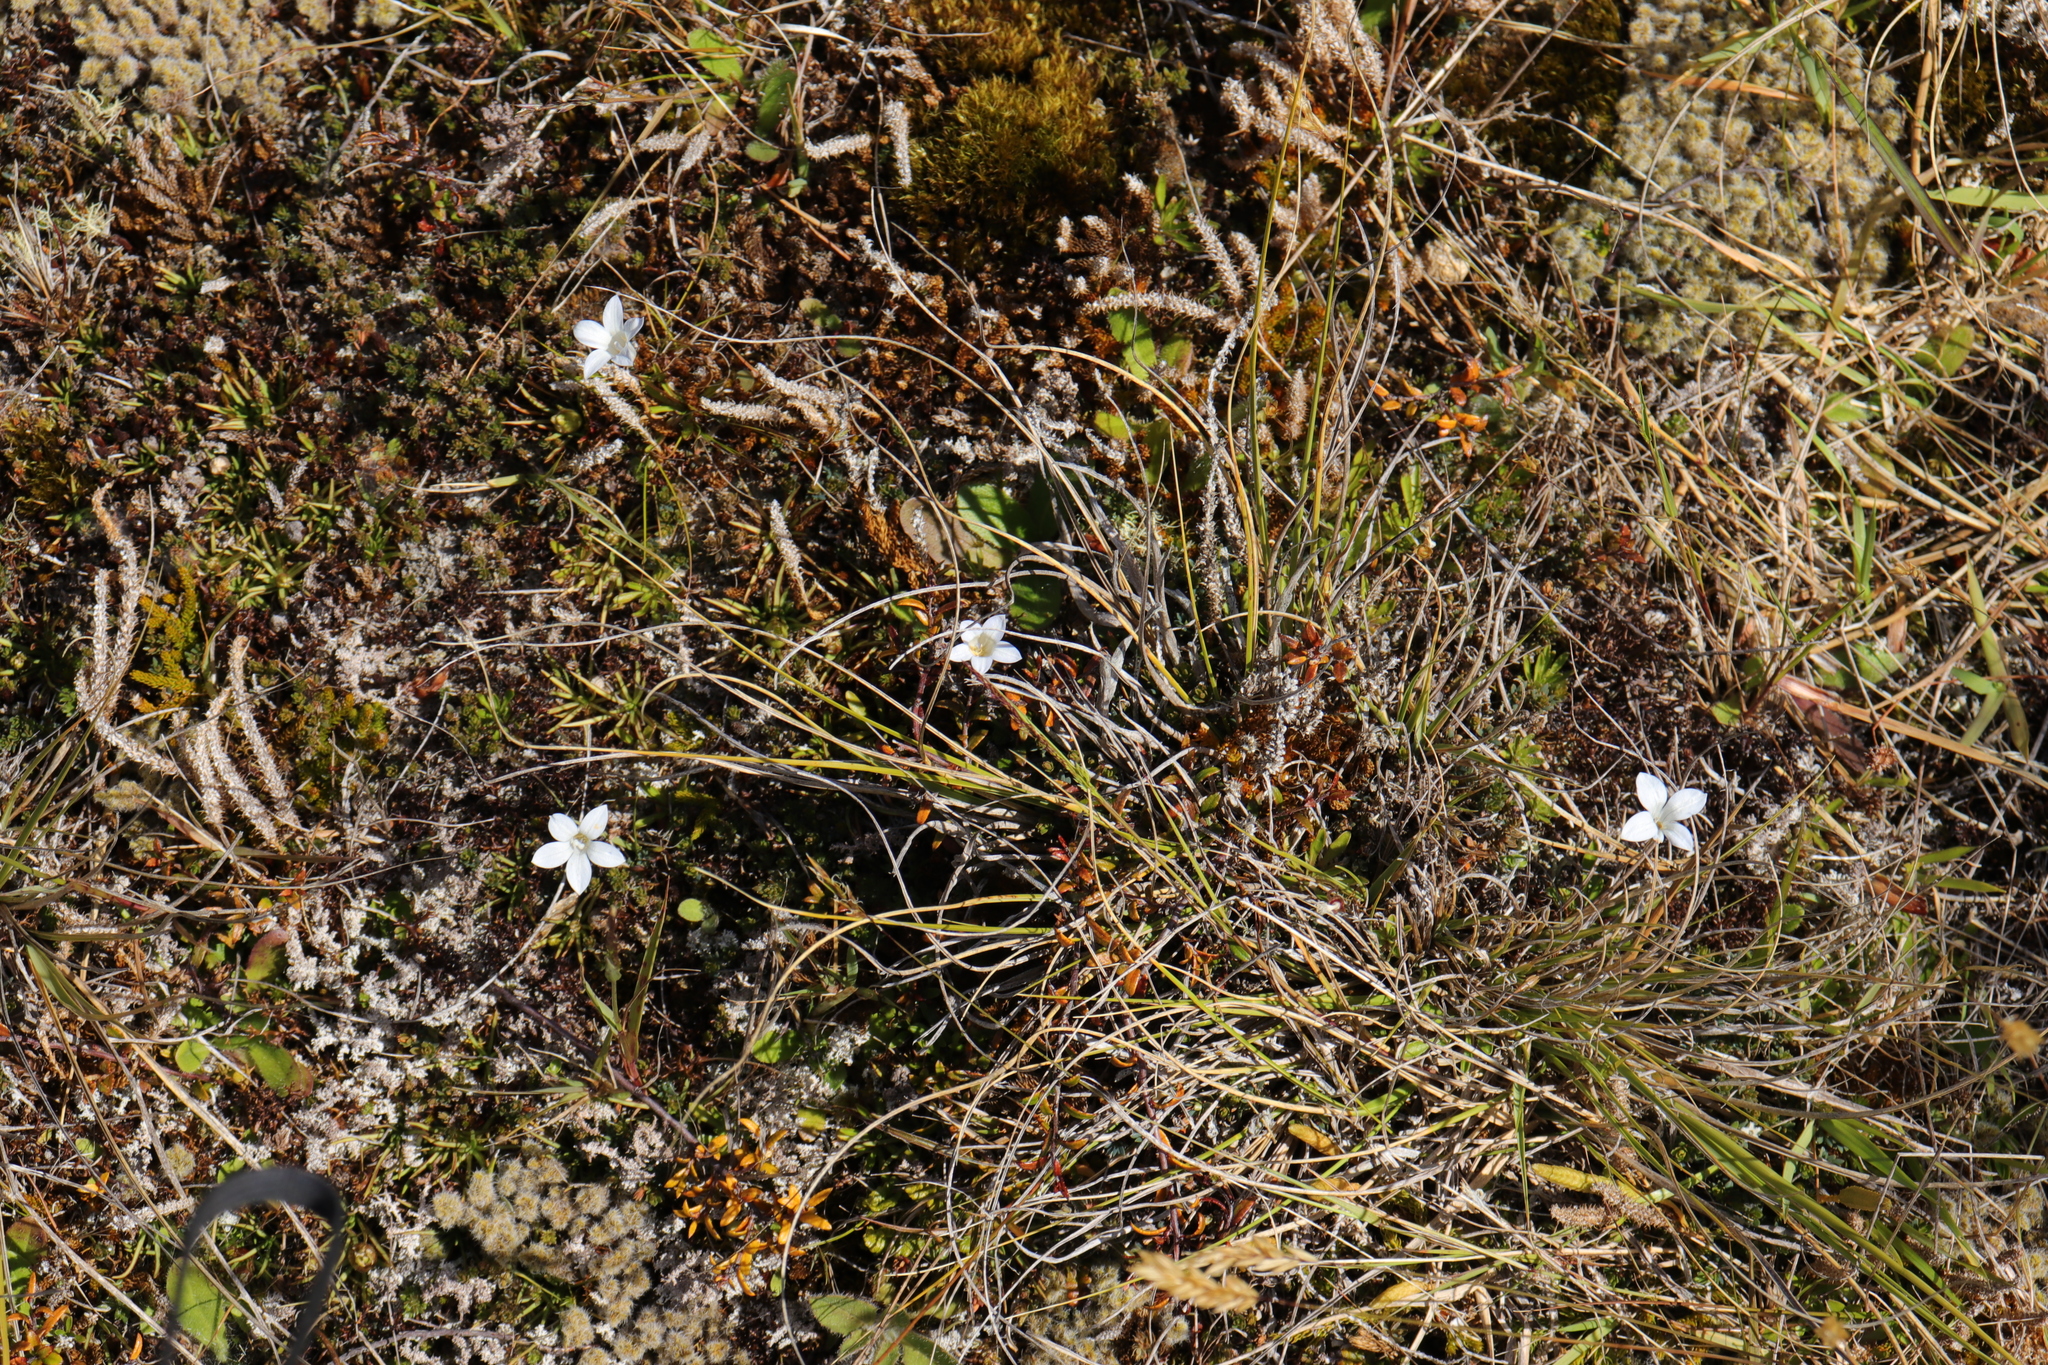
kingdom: Plantae
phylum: Tracheophyta
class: Magnoliopsida
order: Asterales
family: Campanulaceae
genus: Wahlenbergia
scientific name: Wahlenbergia albomarginata
